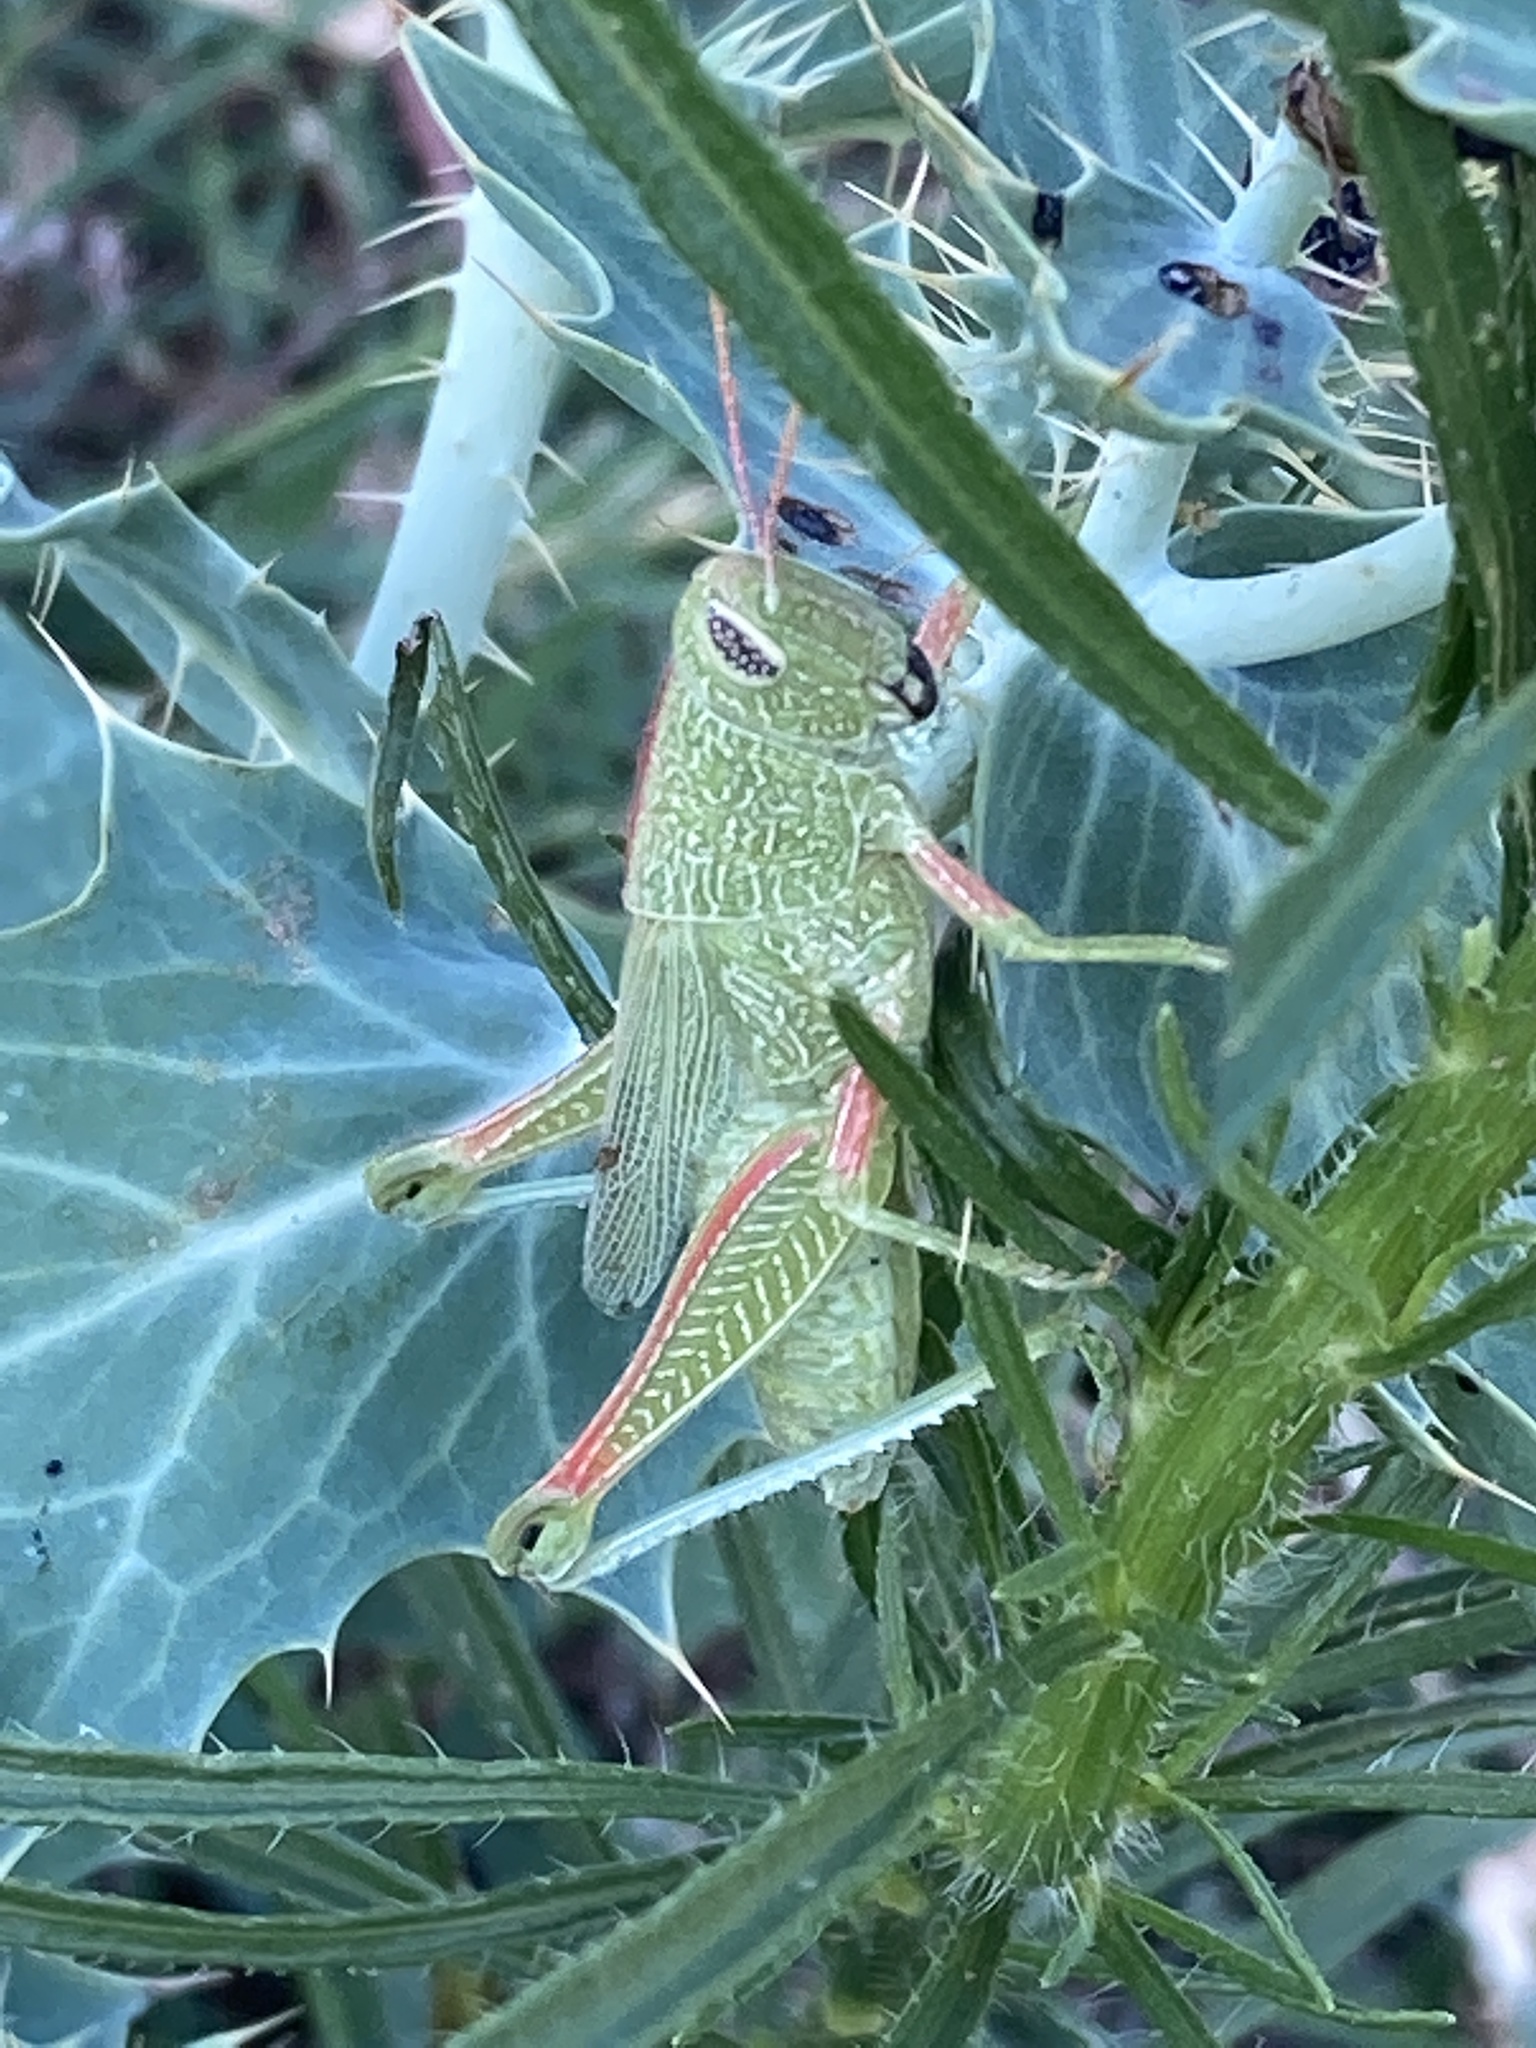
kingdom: Animalia
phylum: Arthropoda
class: Insecta
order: Orthoptera
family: Acrididae
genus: Hesperotettix
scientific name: Hesperotettix speciosus
